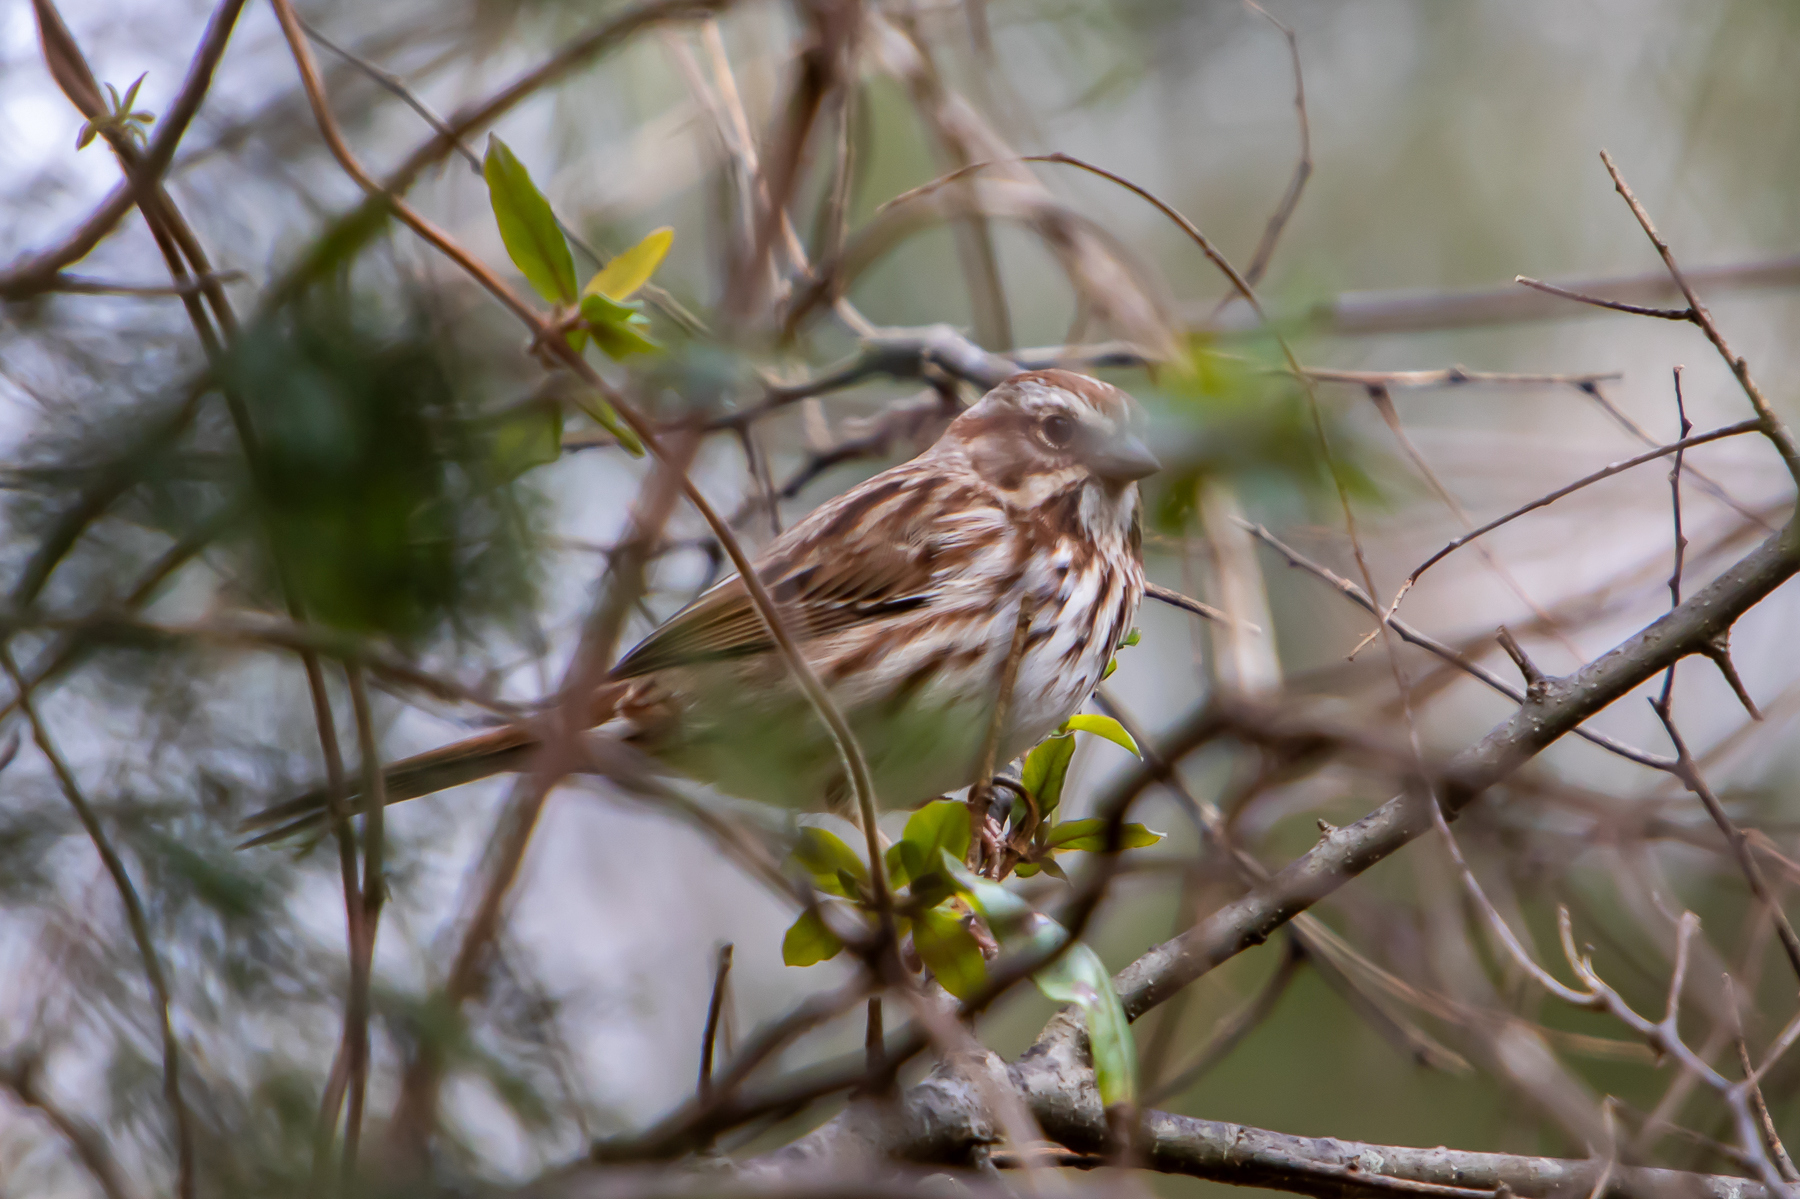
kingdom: Animalia
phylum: Chordata
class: Aves
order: Passeriformes
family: Passerellidae
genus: Melospiza
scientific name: Melospiza melodia
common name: Song sparrow
